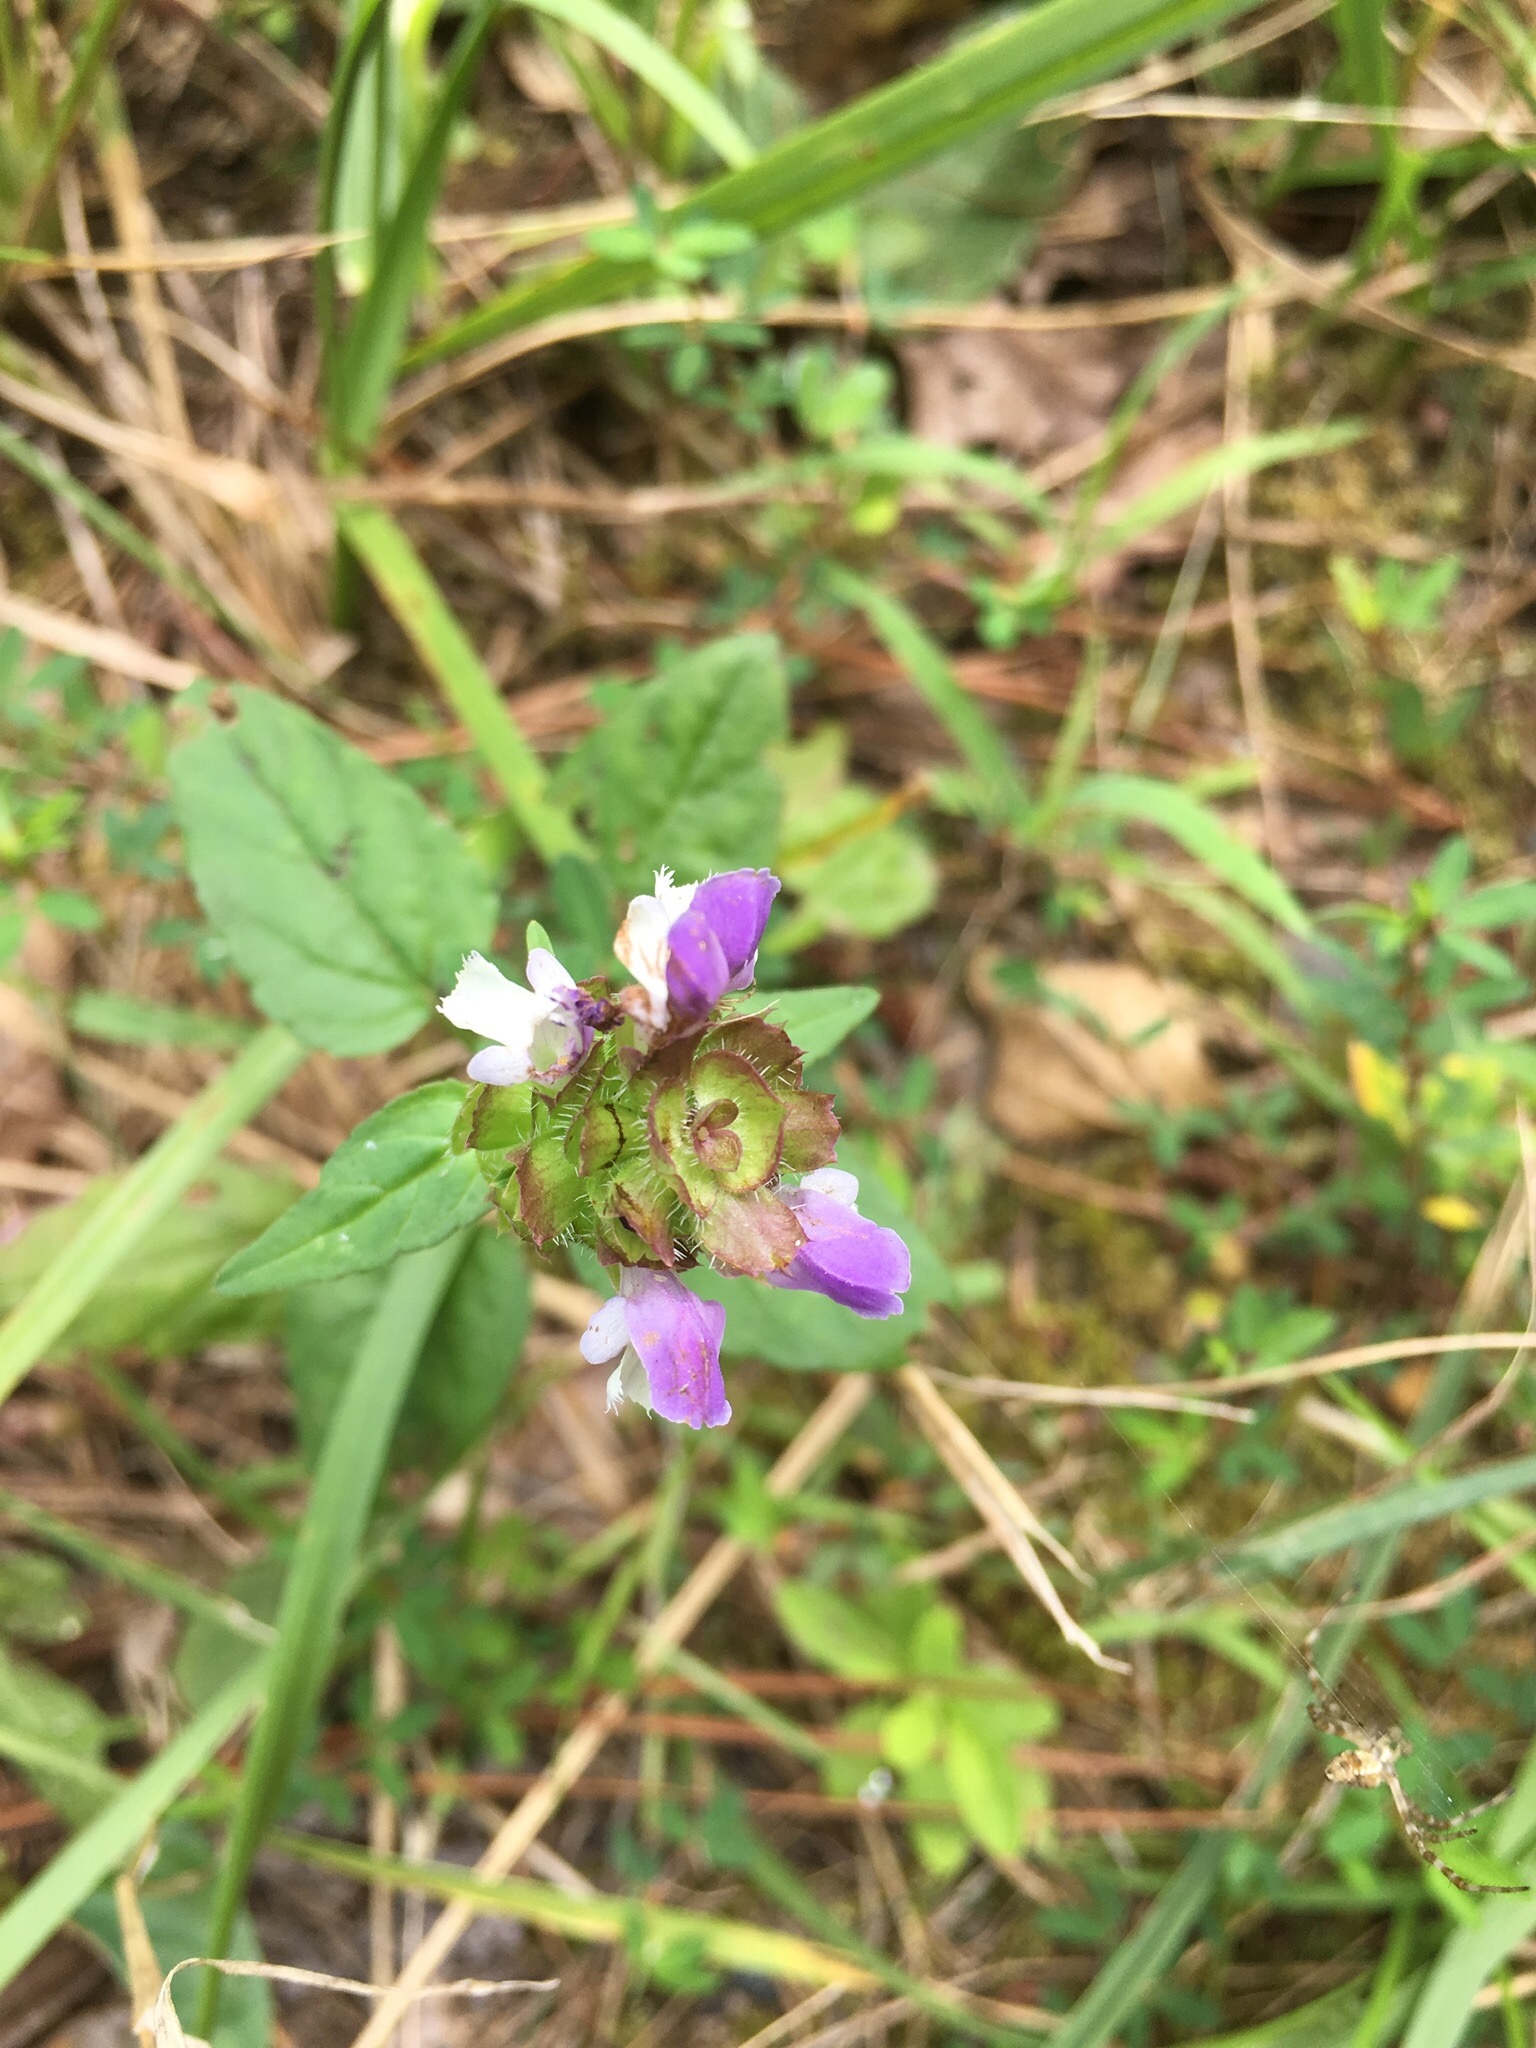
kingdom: Plantae
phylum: Tracheophyta
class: Magnoliopsida
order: Lamiales
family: Lamiaceae
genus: Prunella
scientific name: Prunella vulgaris
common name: Heal-all
